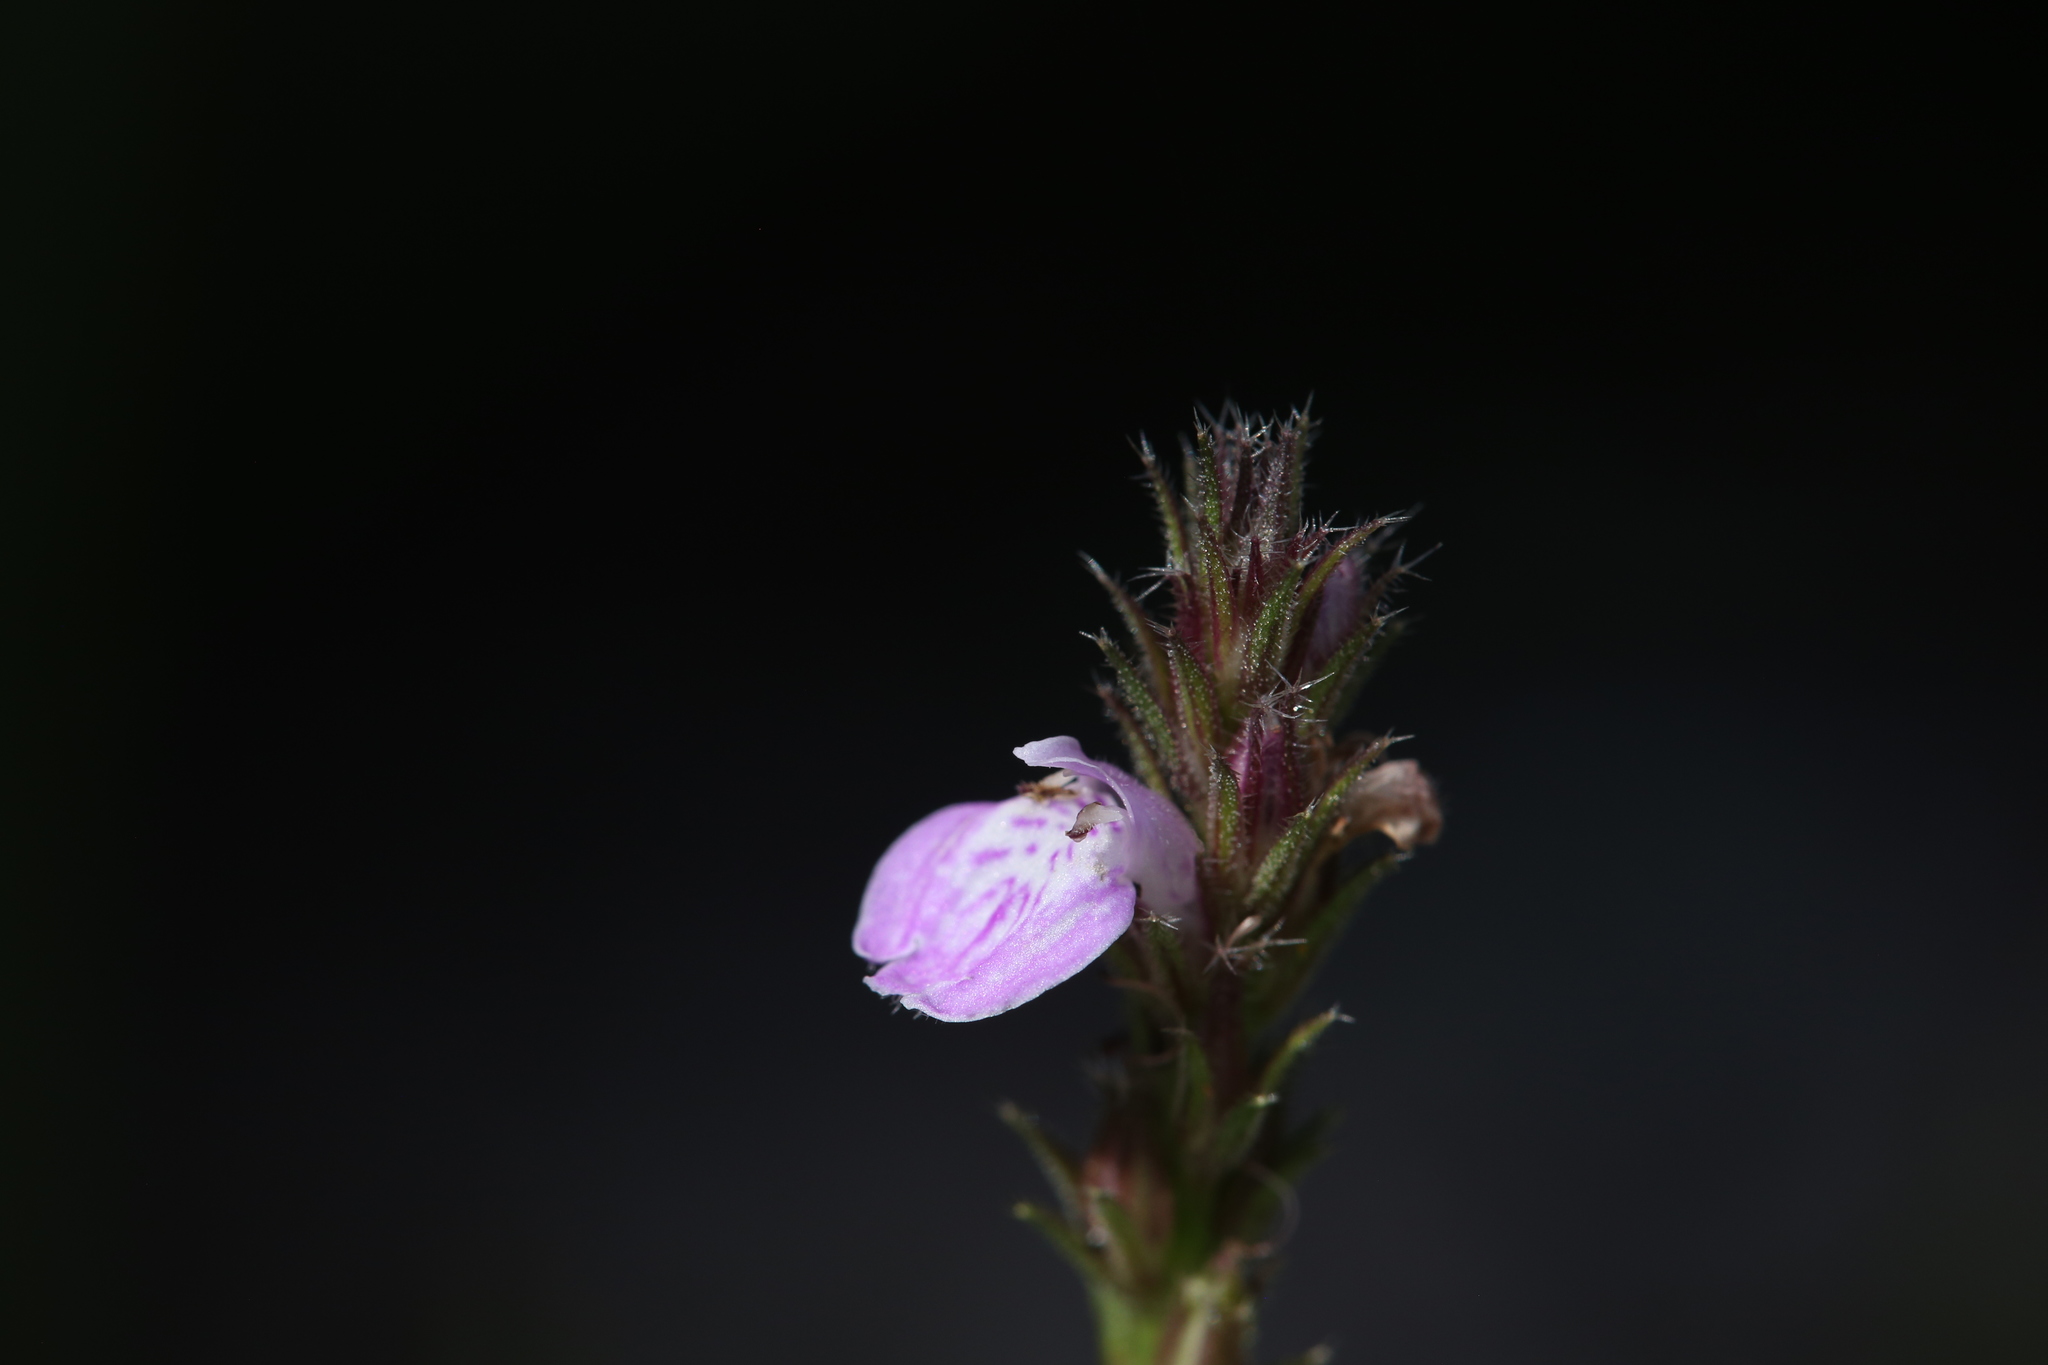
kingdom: Plantae
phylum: Tracheophyta
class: Magnoliopsida
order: Lamiales
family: Acanthaceae
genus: Rostellularia
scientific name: Rostellularia adscendens
